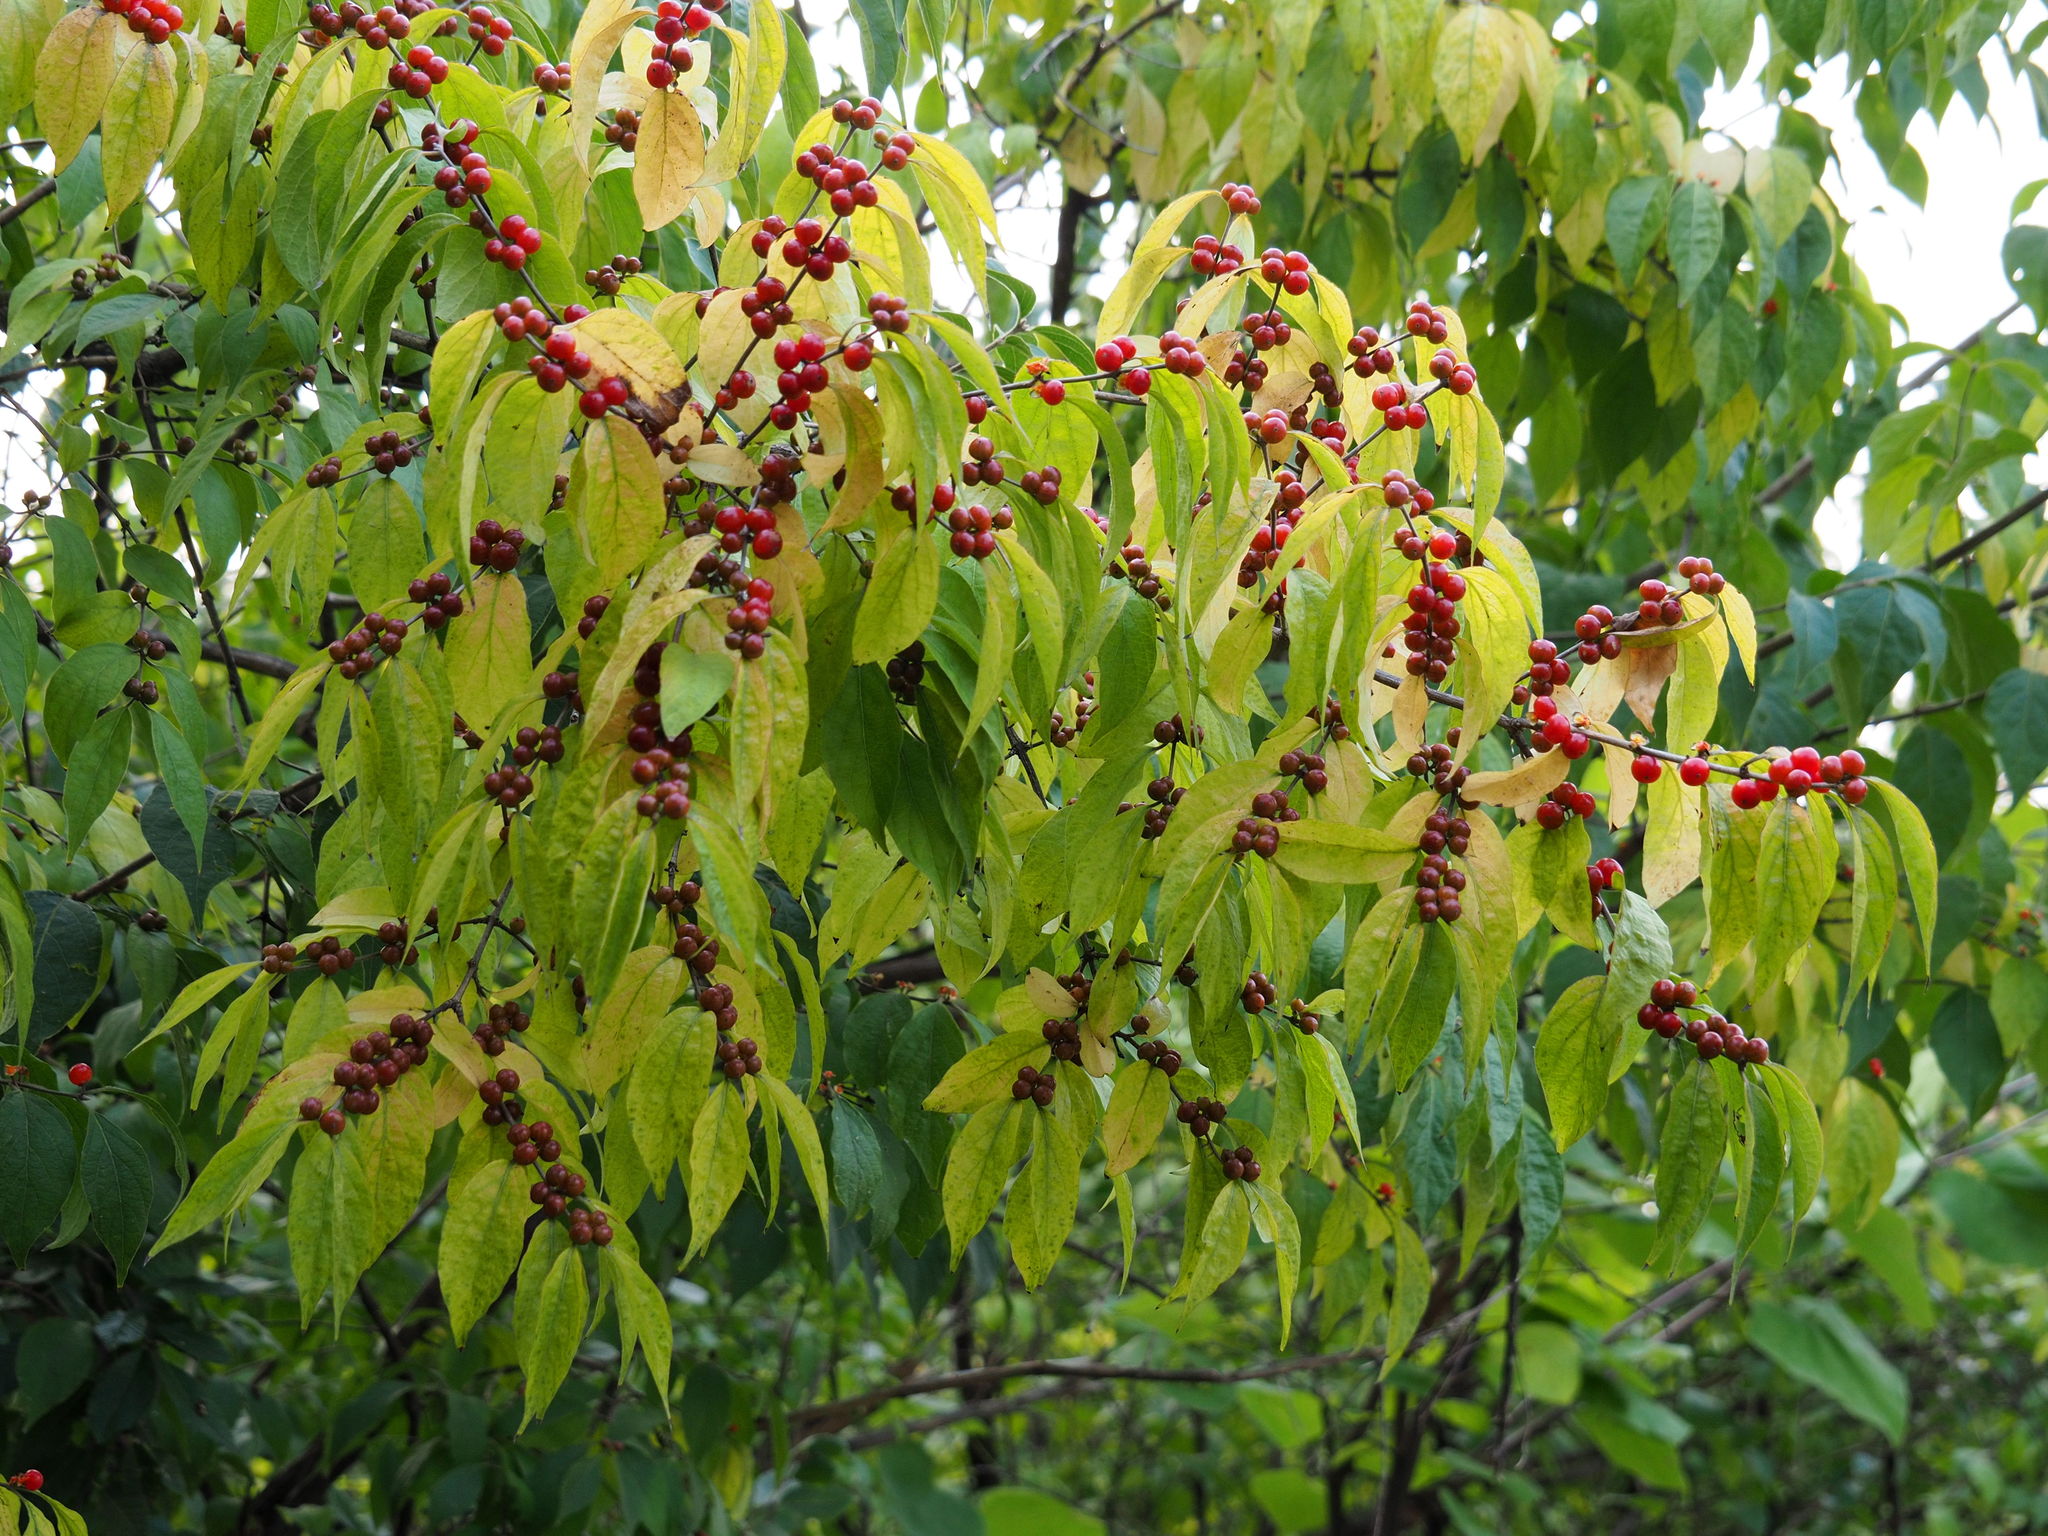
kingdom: Plantae
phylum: Tracheophyta
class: Magnoliopsida
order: Dipsacales
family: Caprifoliaceae
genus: Lonicera
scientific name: Lonicera maackii
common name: Amur honeysuckle
